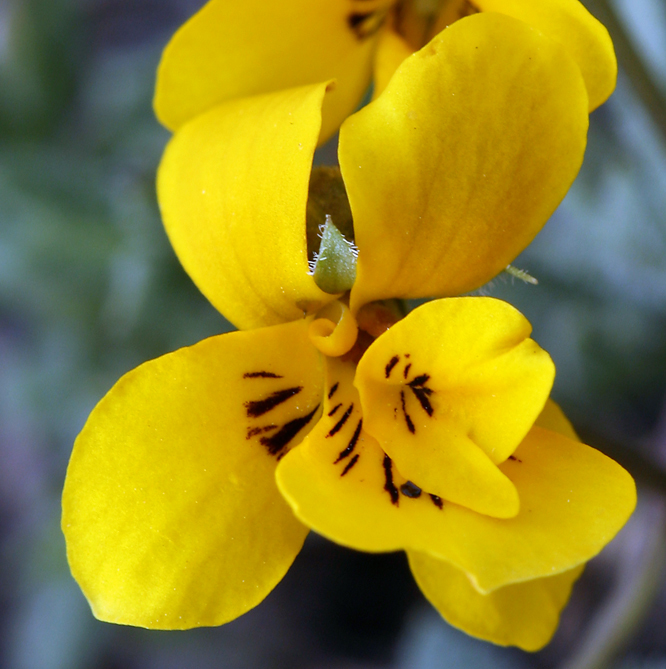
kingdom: Plantae
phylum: Tracheophyta
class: Magnoliopsida
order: Malpighiales
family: Violaceae
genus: Viola
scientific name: Viola douglasii
